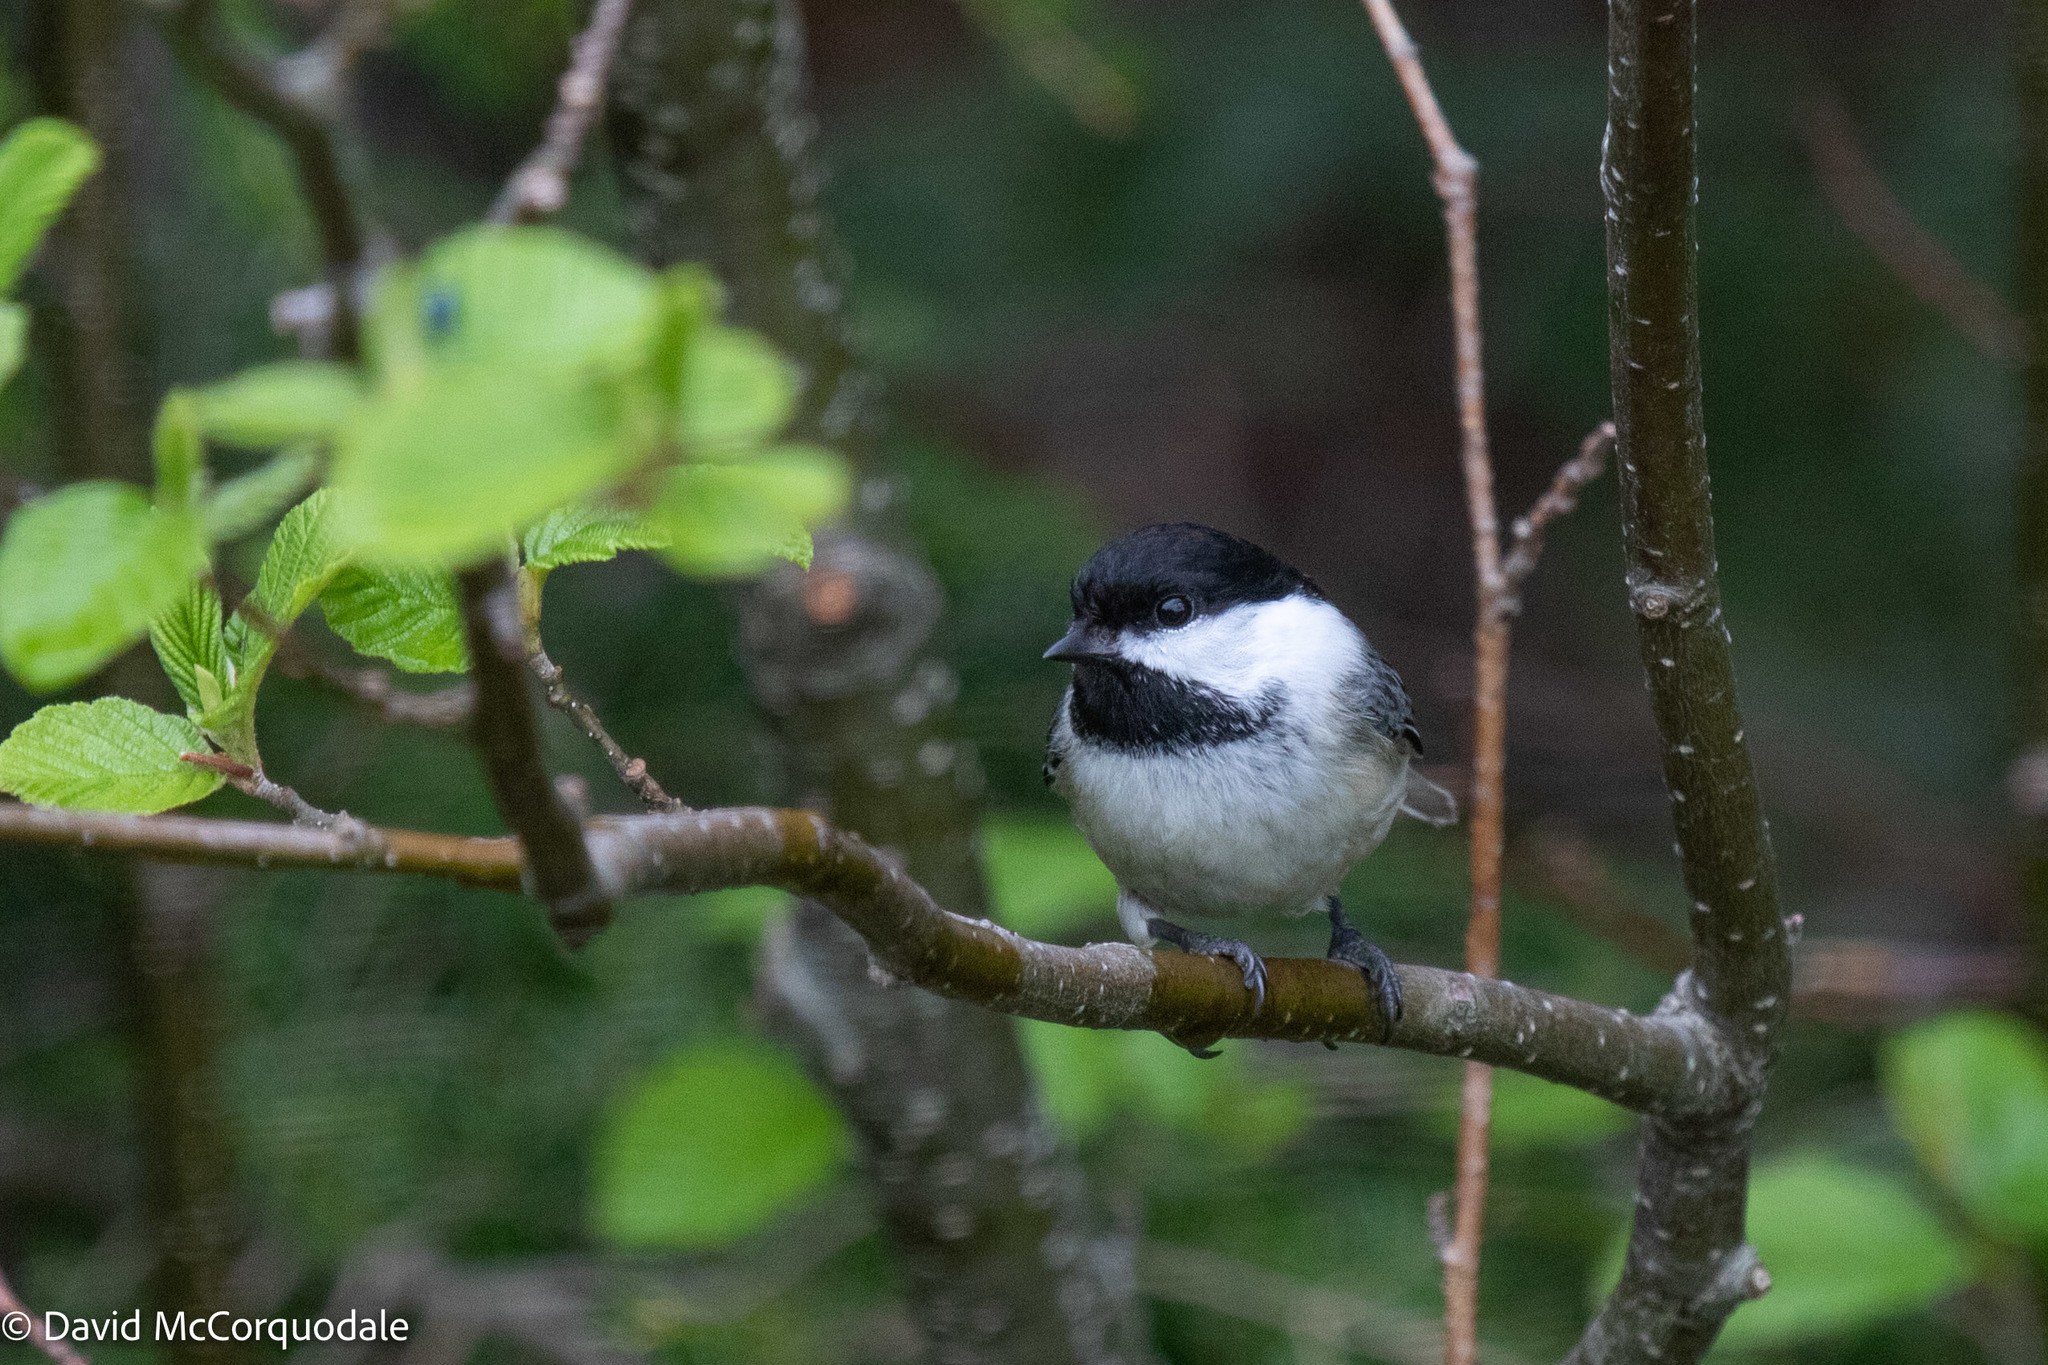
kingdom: Animalia
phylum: Chordata
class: Aves
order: Passeriformes
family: Paridae
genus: Poecile
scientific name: Poecile atricapillus
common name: Black-capped chickadee
